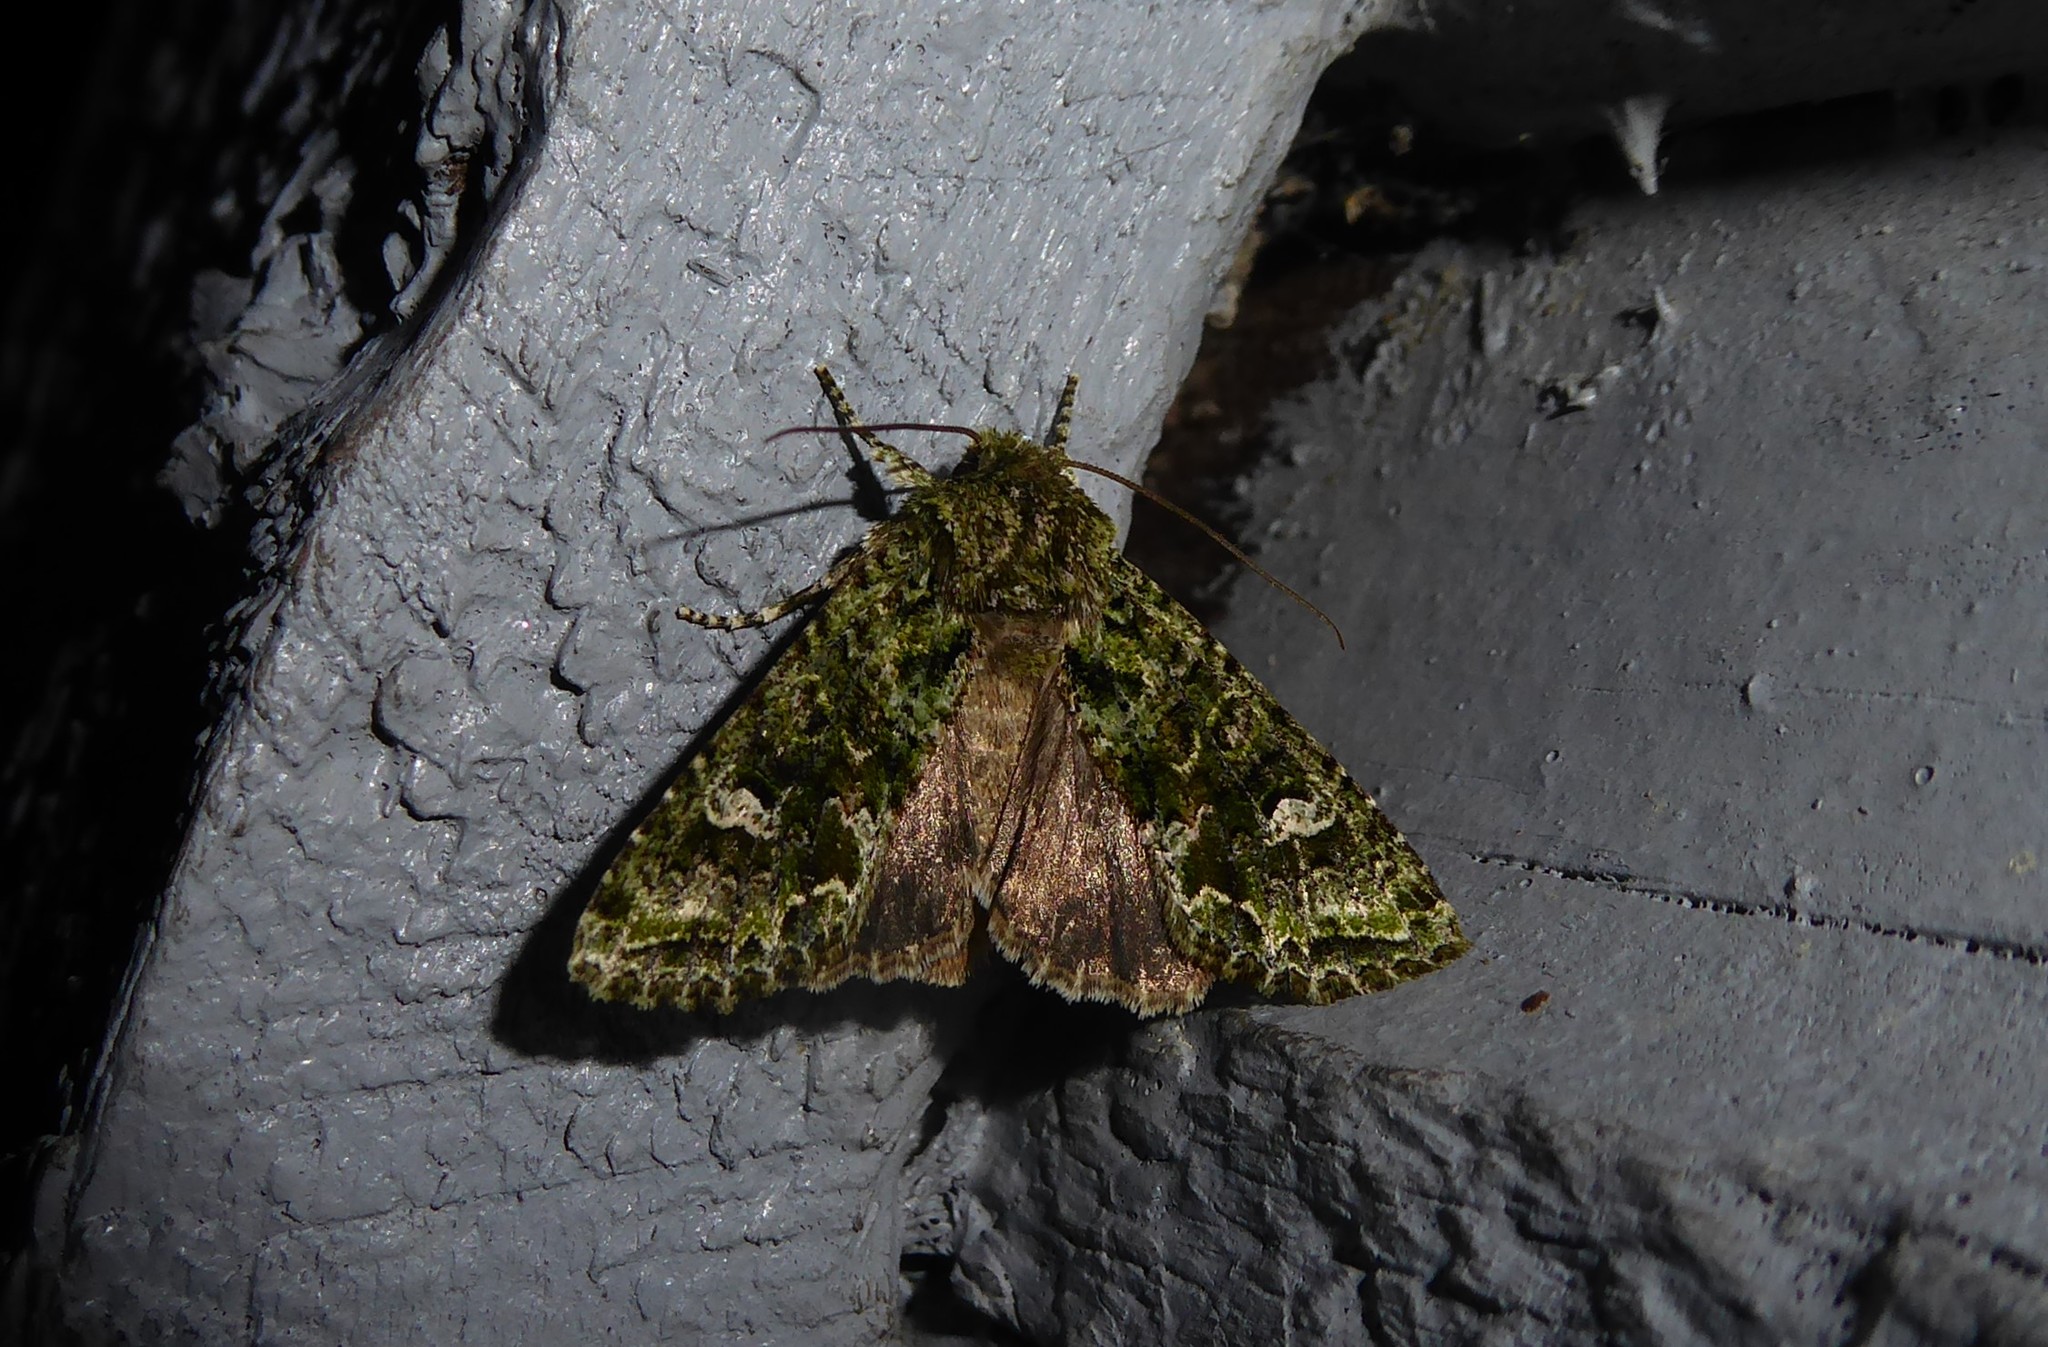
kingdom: Animalia
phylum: Arthropoda
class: Insecta
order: Lepidoptera
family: Noctuidae
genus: Ichneutica
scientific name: Ichneutica
